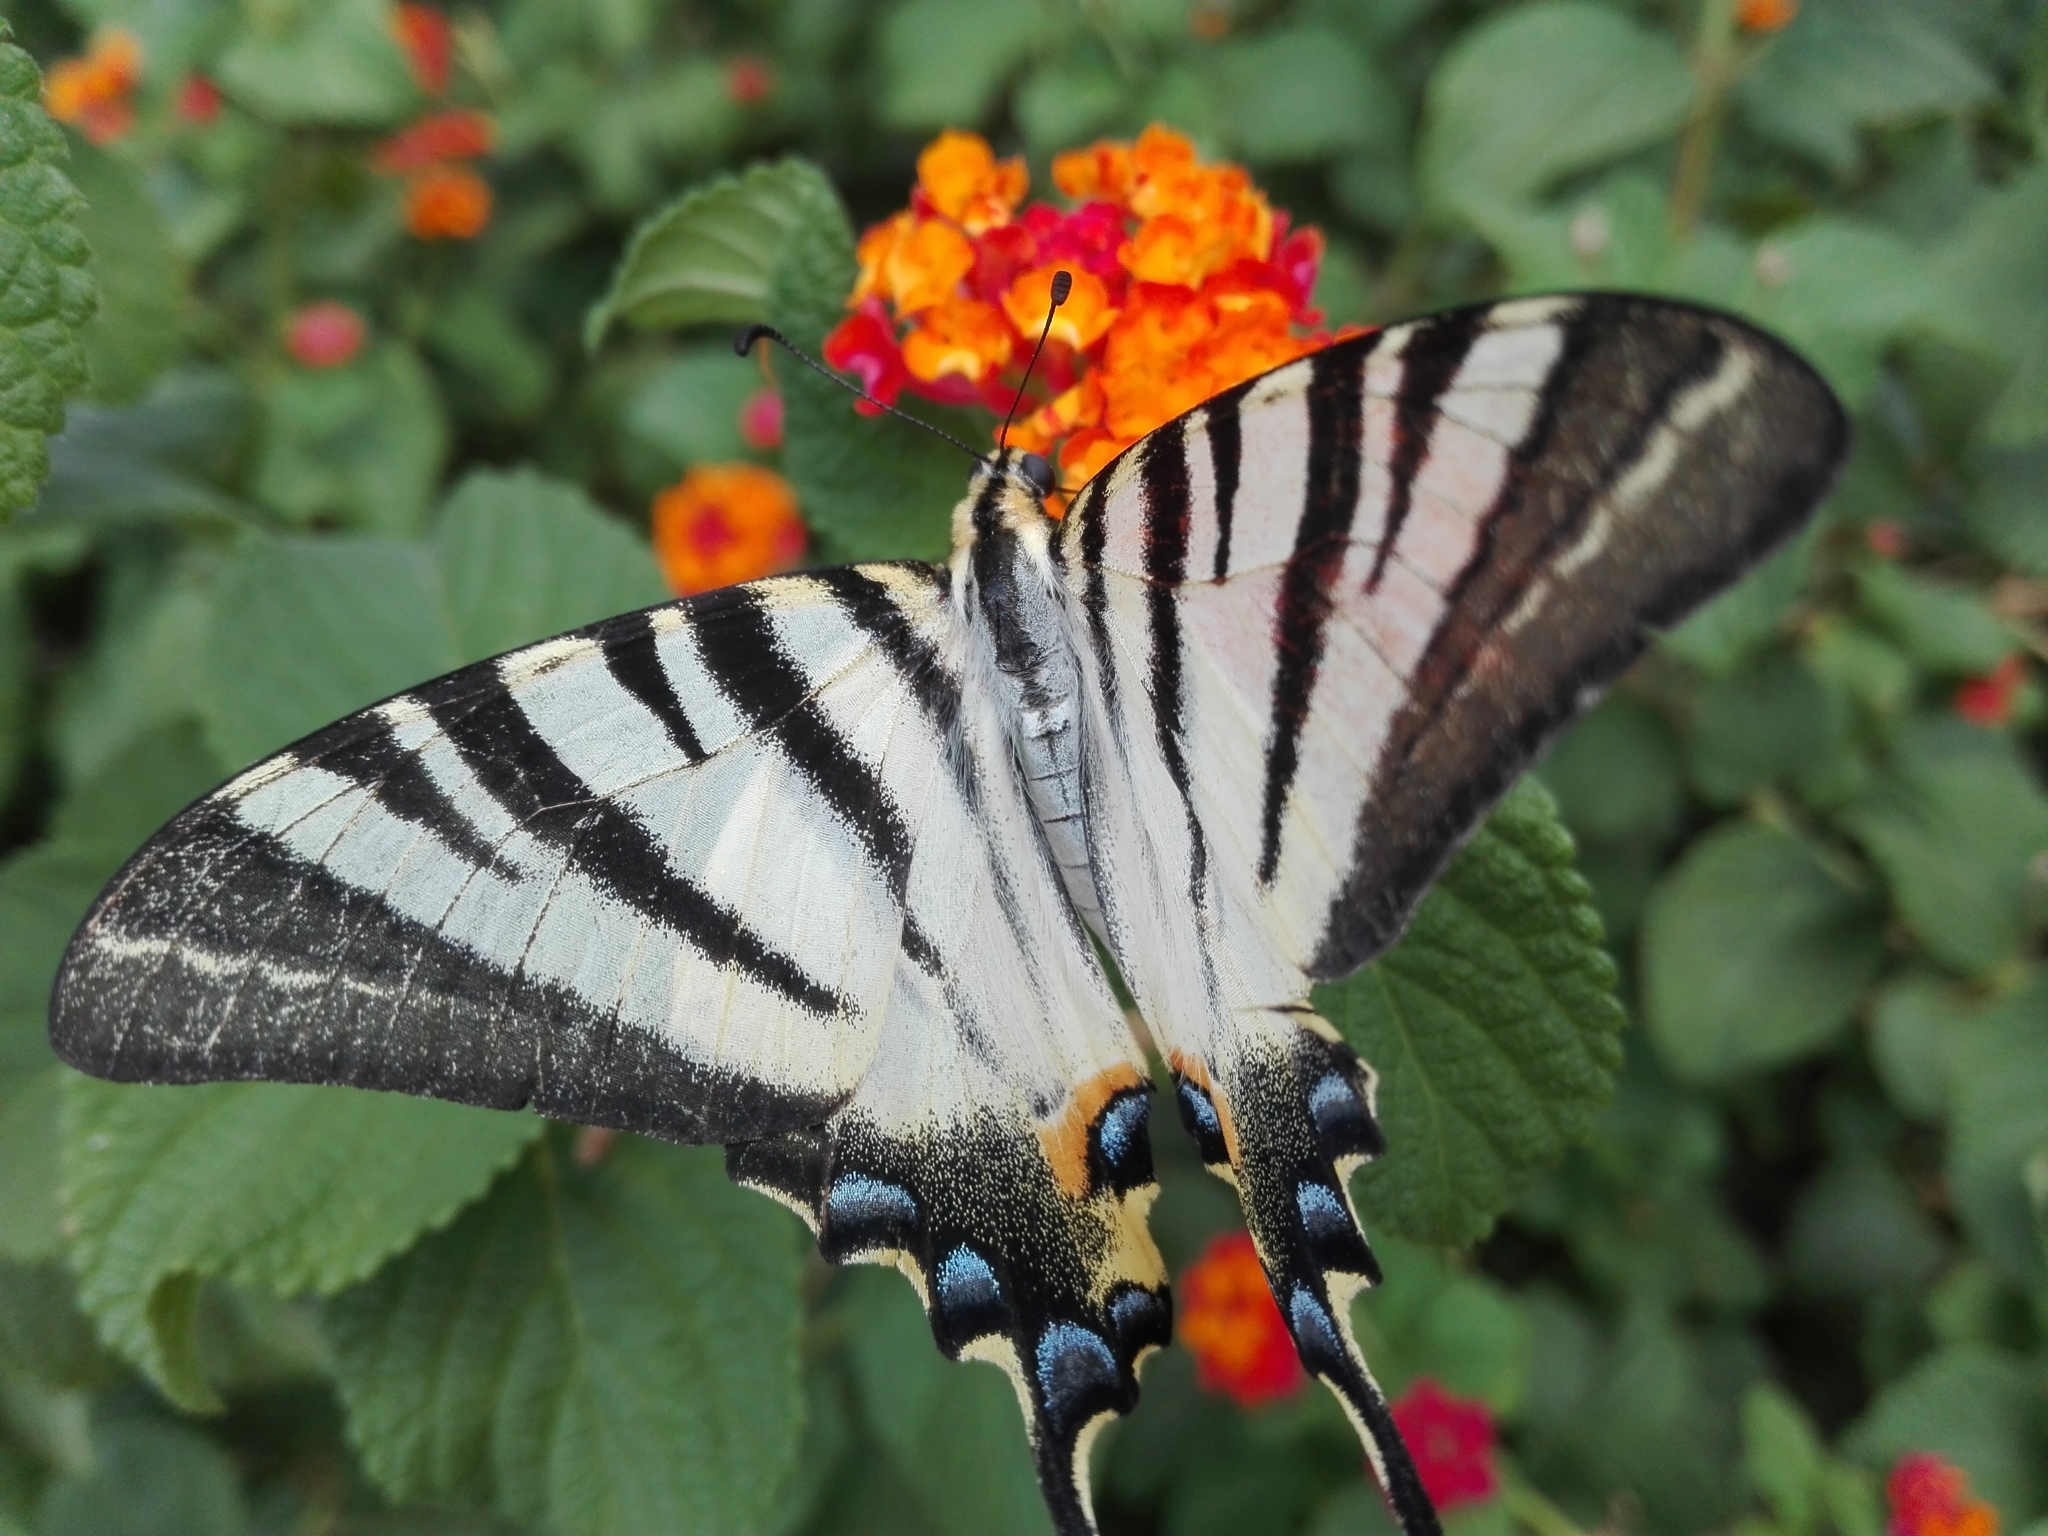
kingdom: Animalia
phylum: Arthropoda
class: Insecta
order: Lepidoptera
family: Papilionidae
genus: Iphiclides
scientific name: Iphiclides podalirius
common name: Scarce swallowtail
